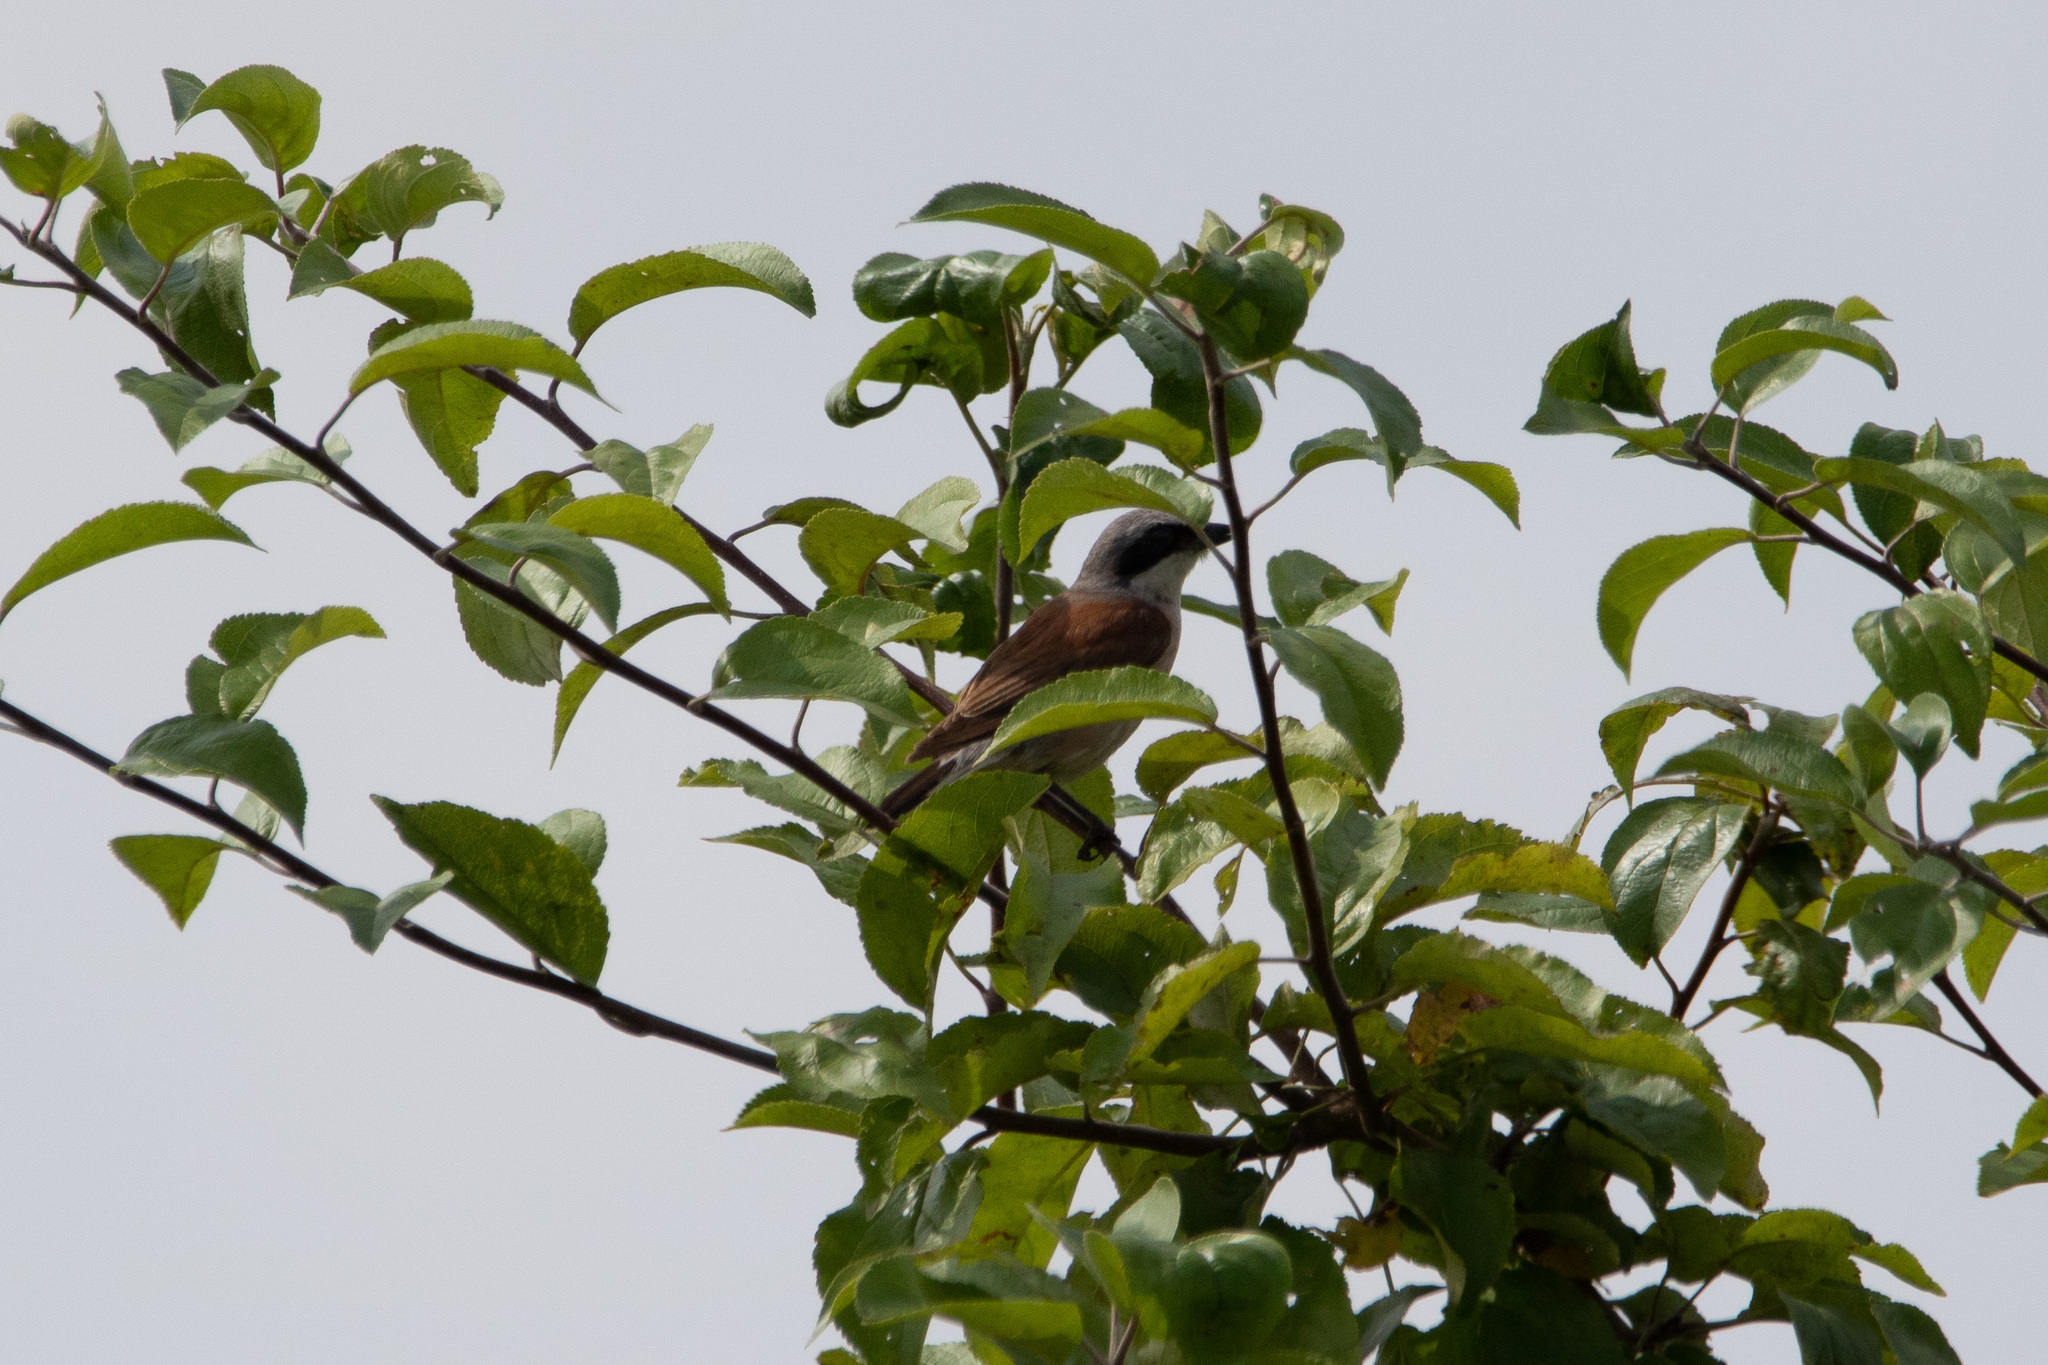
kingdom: Animalia
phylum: Chordata
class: Aves
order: Passeriformes
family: Laniidae
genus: Lanius
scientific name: Lanius collurio
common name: Red-backed shrike
